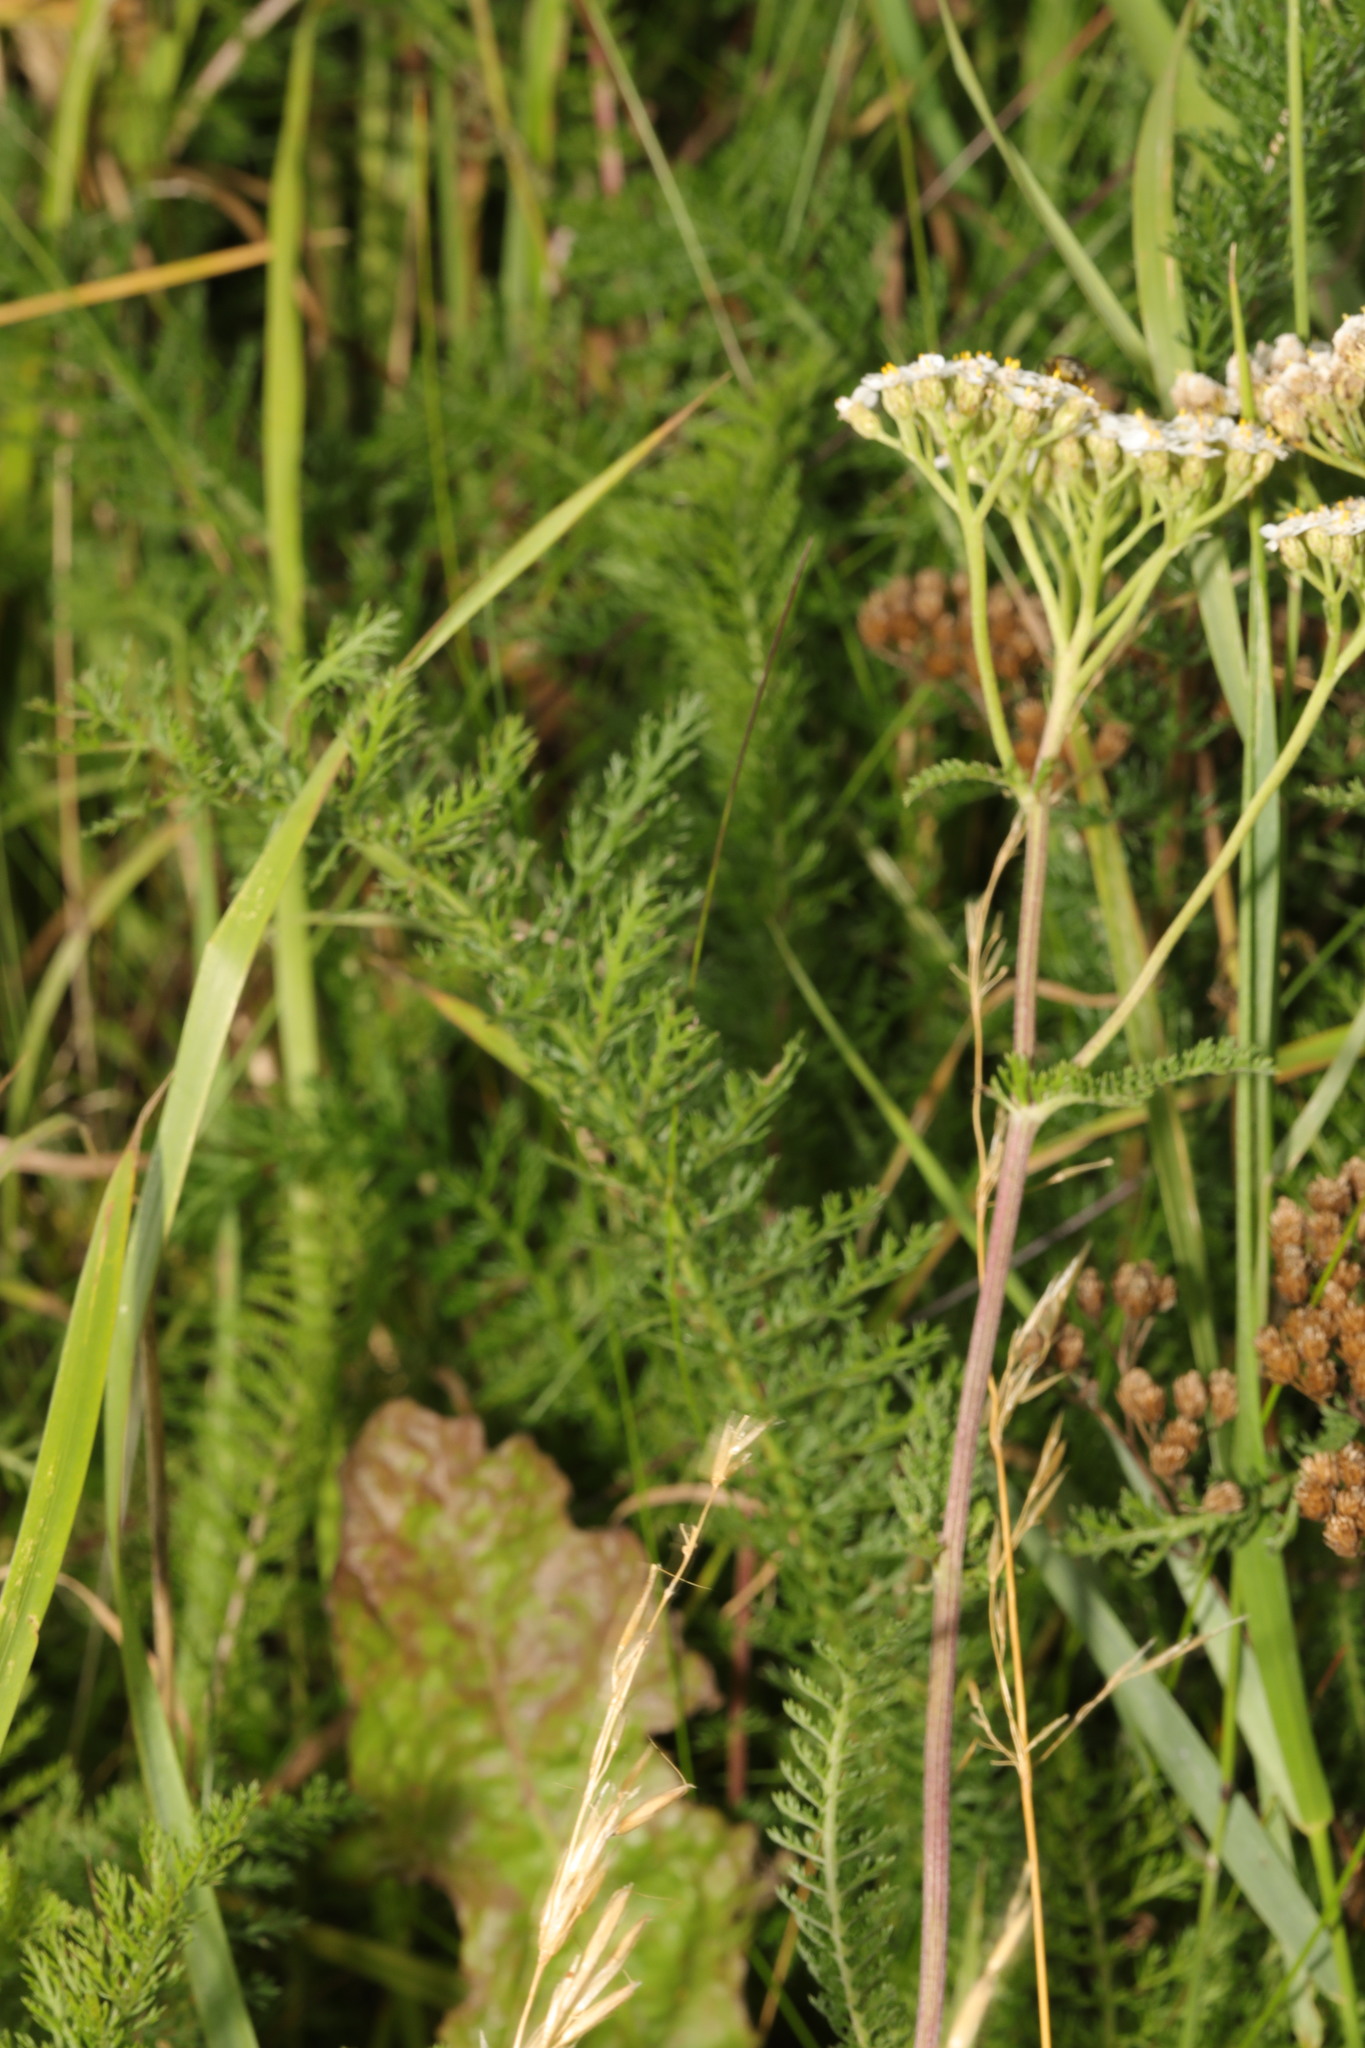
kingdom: Plantae
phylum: Tracheophyta
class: Magnoliopsida
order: Asterales
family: Asteraceae
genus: Achillea
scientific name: Achillea millefolium
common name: Yarrow
